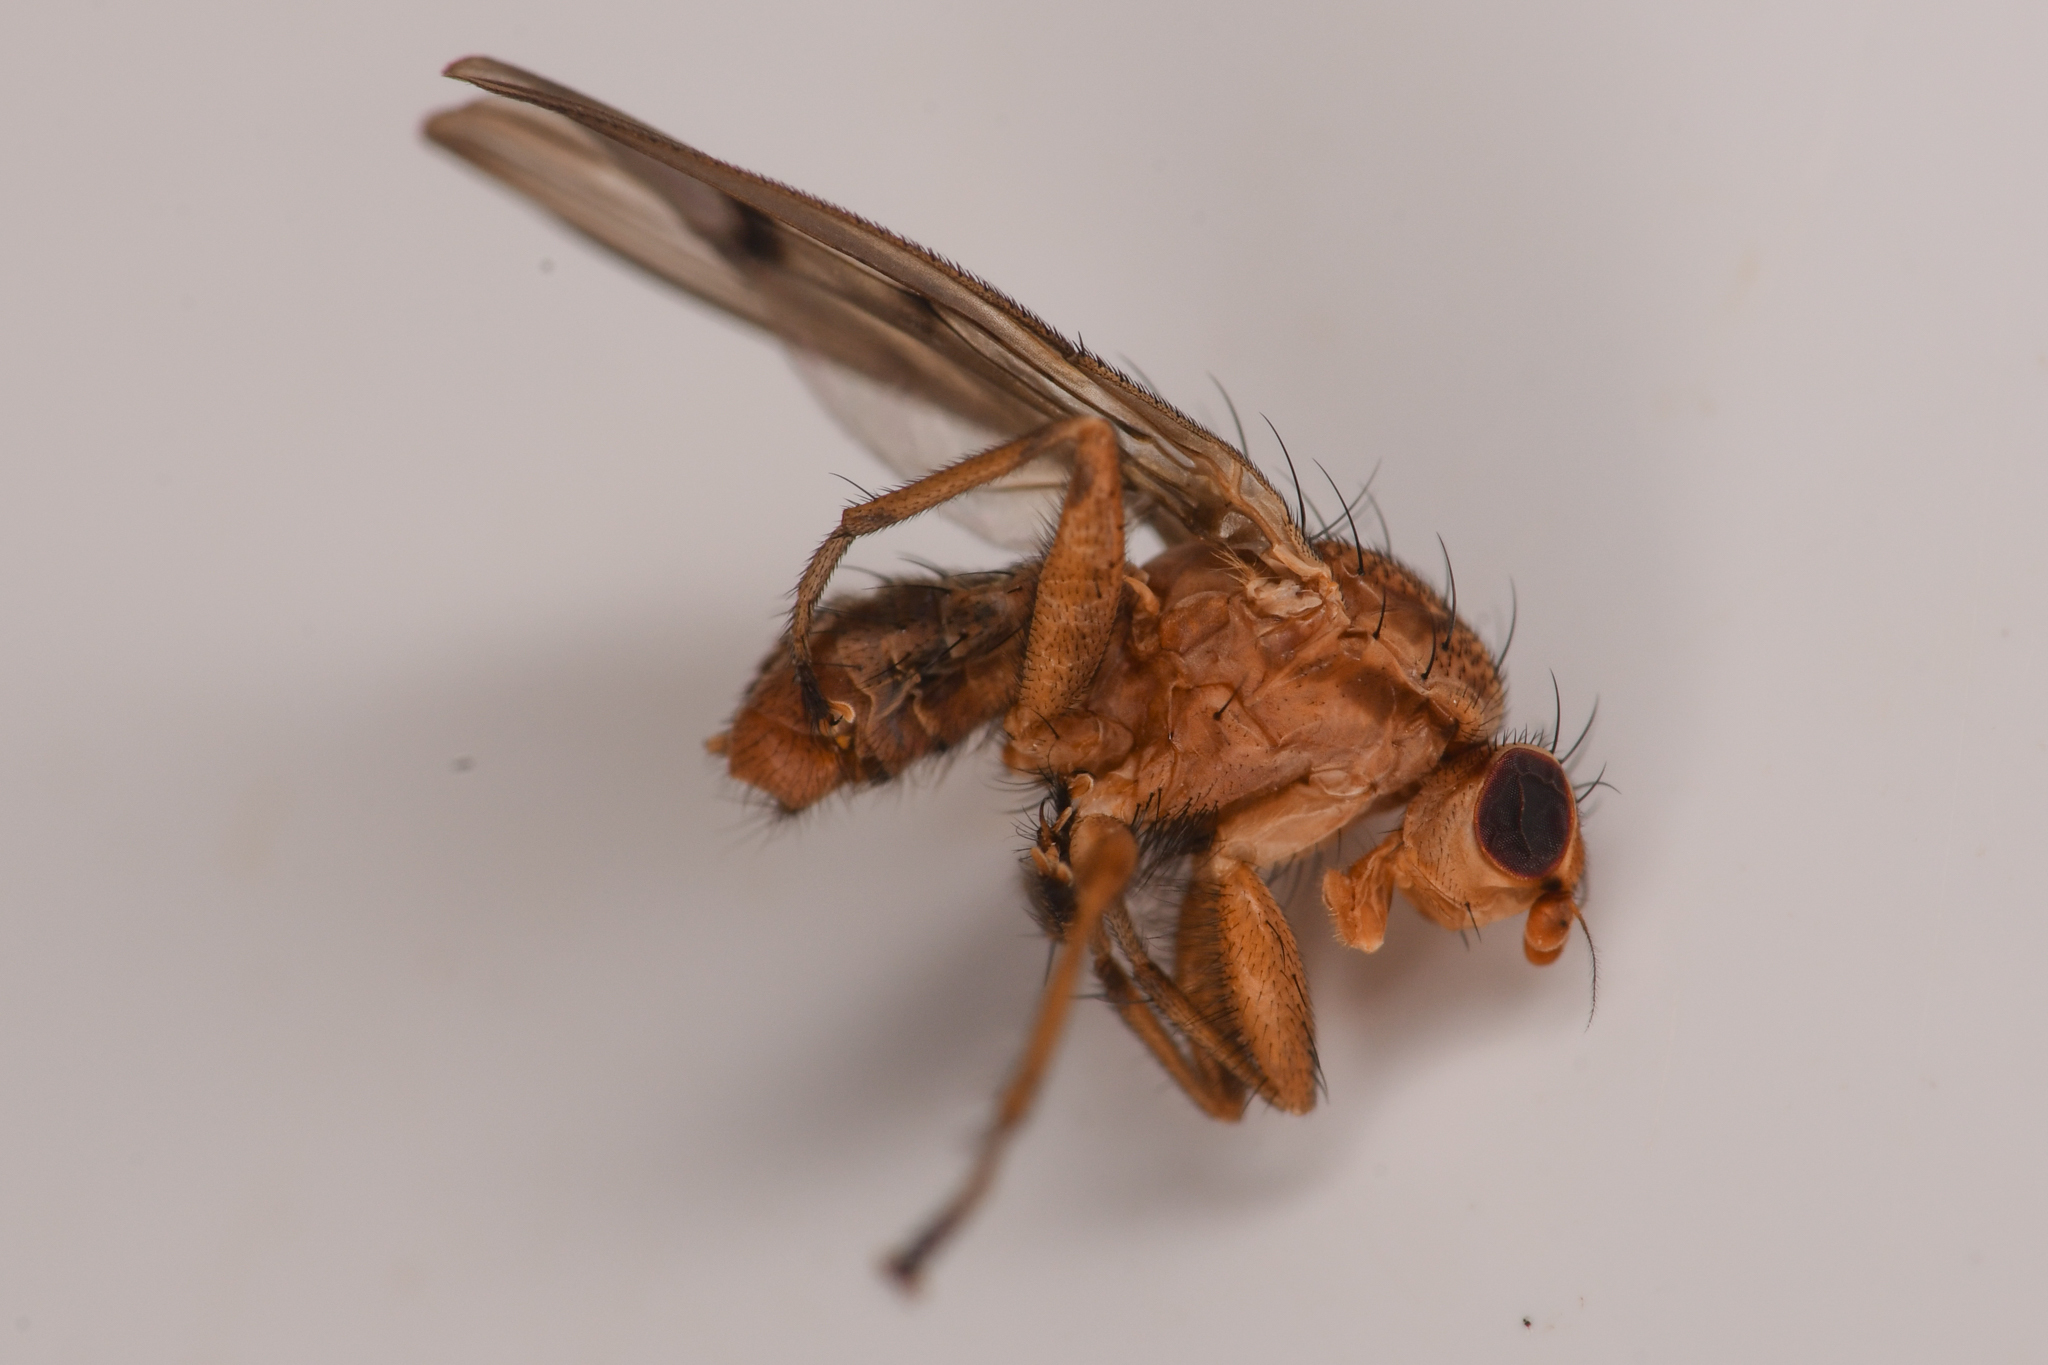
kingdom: Animalia
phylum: Arthropoda
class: Insecta
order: Diptera
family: Heleomyzidae
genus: Suillia
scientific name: Suillia nemorum
